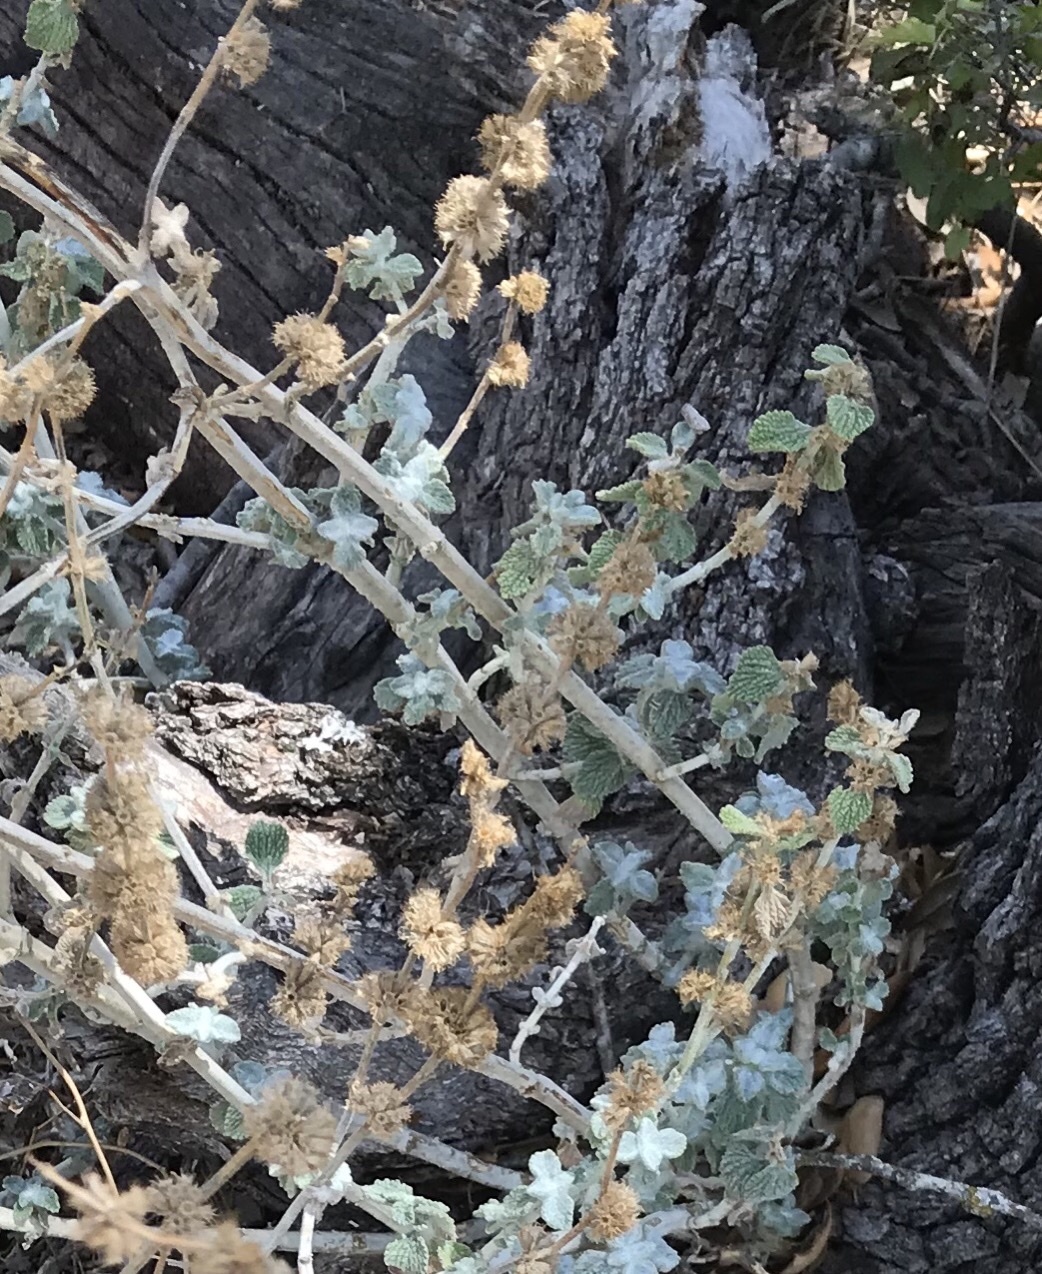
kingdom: Plantae
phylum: Tracheophyta
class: Magnoliopsida
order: Lamiales
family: Lamiaceae
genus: Marrubium
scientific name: Marrubium vulgare
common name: Horehound
